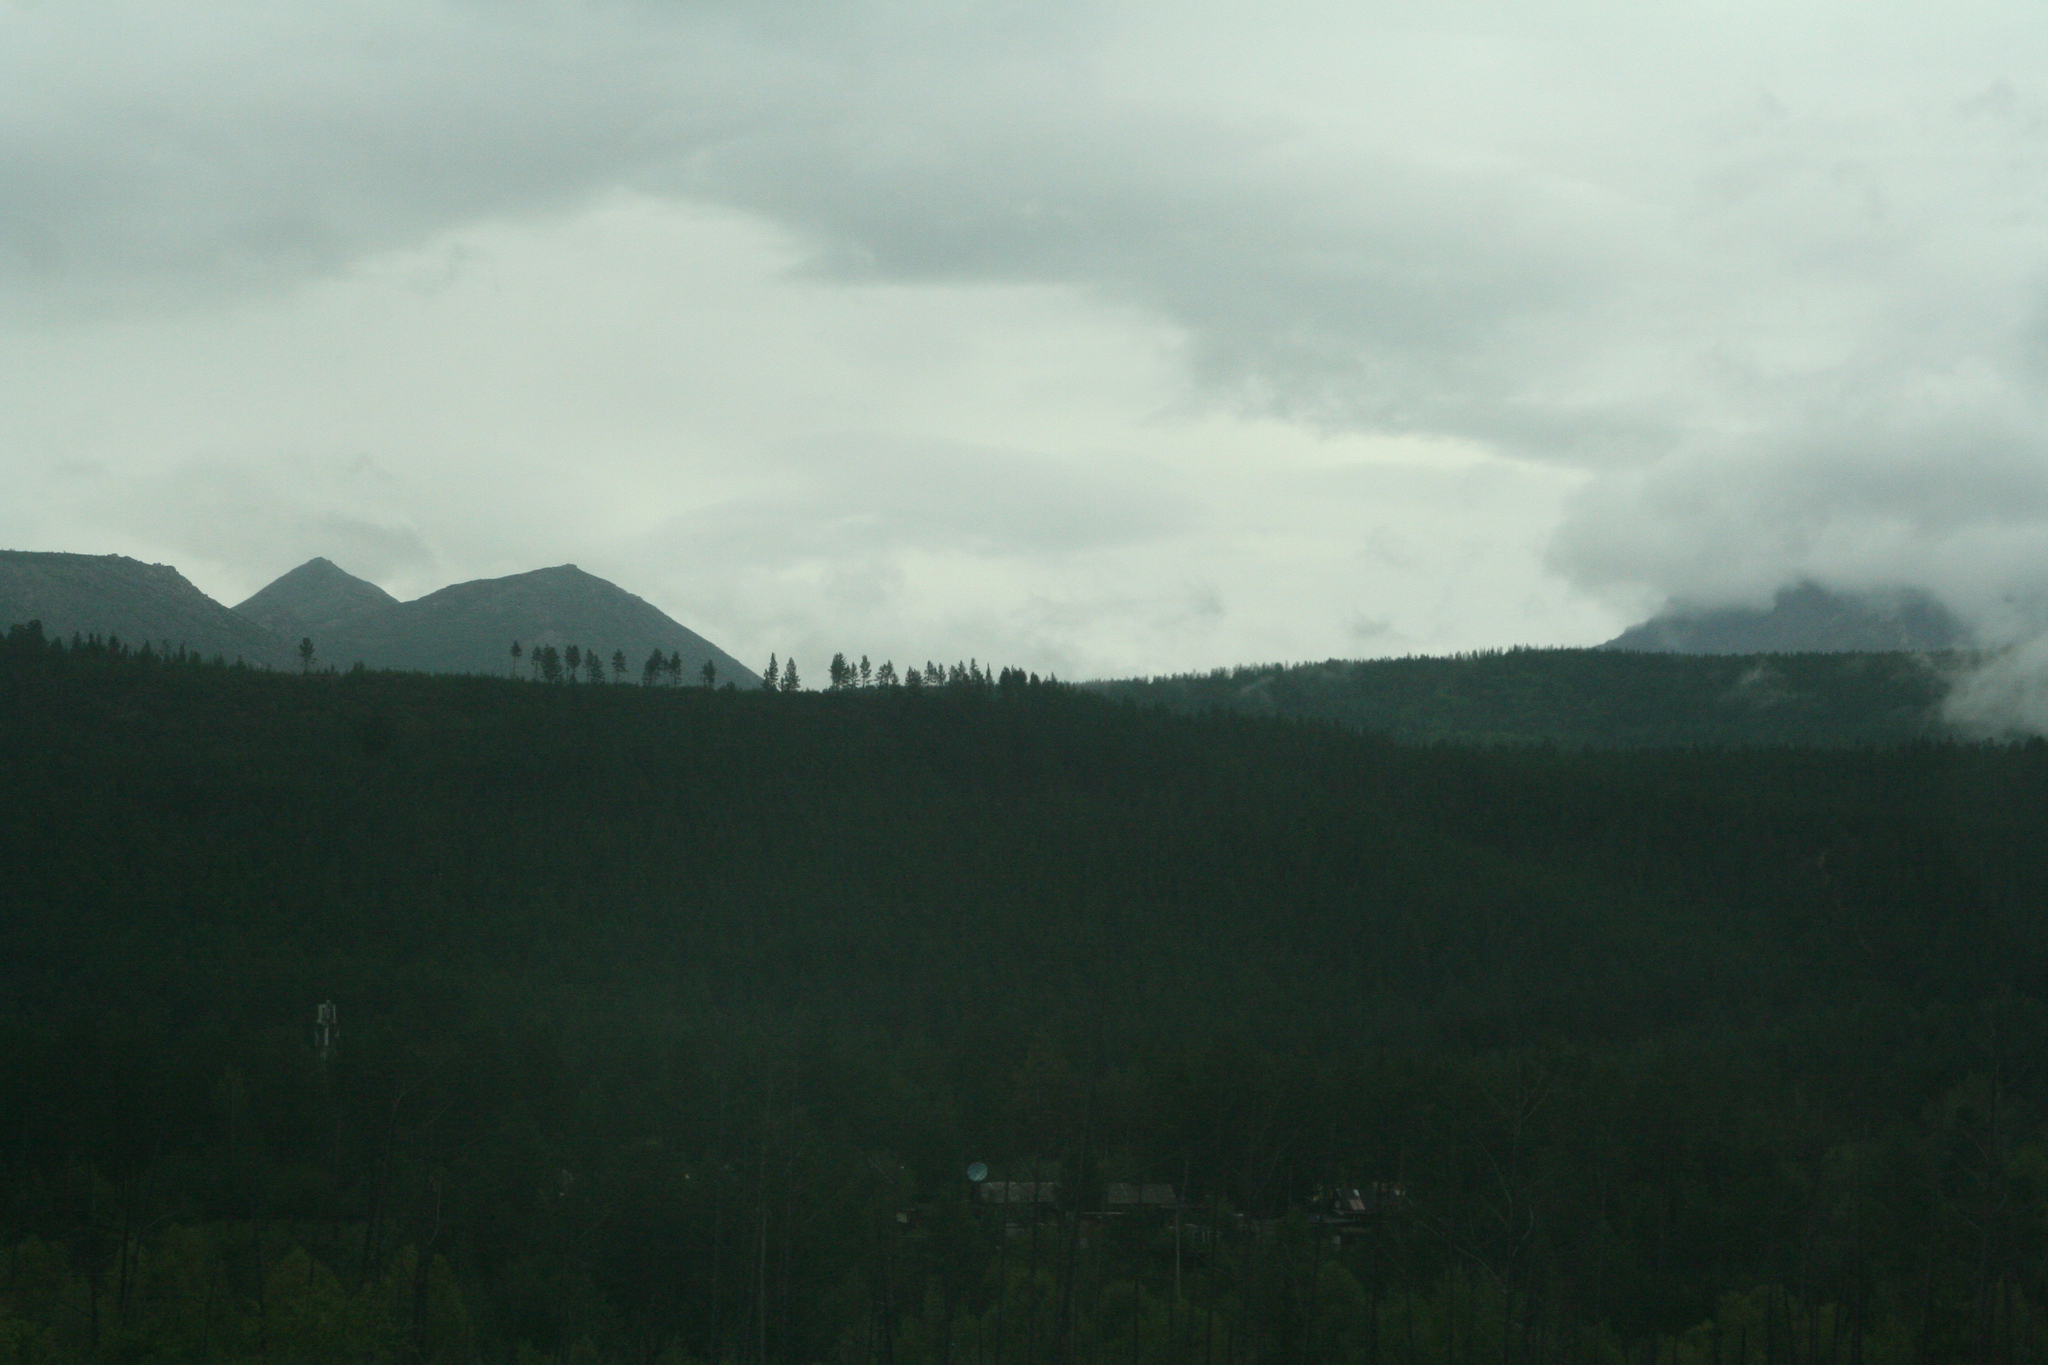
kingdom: Plantae
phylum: Tracheophyta
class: Pinopsida
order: Pinales
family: Pinaceae
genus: Larix
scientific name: Larix gmelinii
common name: Dahurian larch
